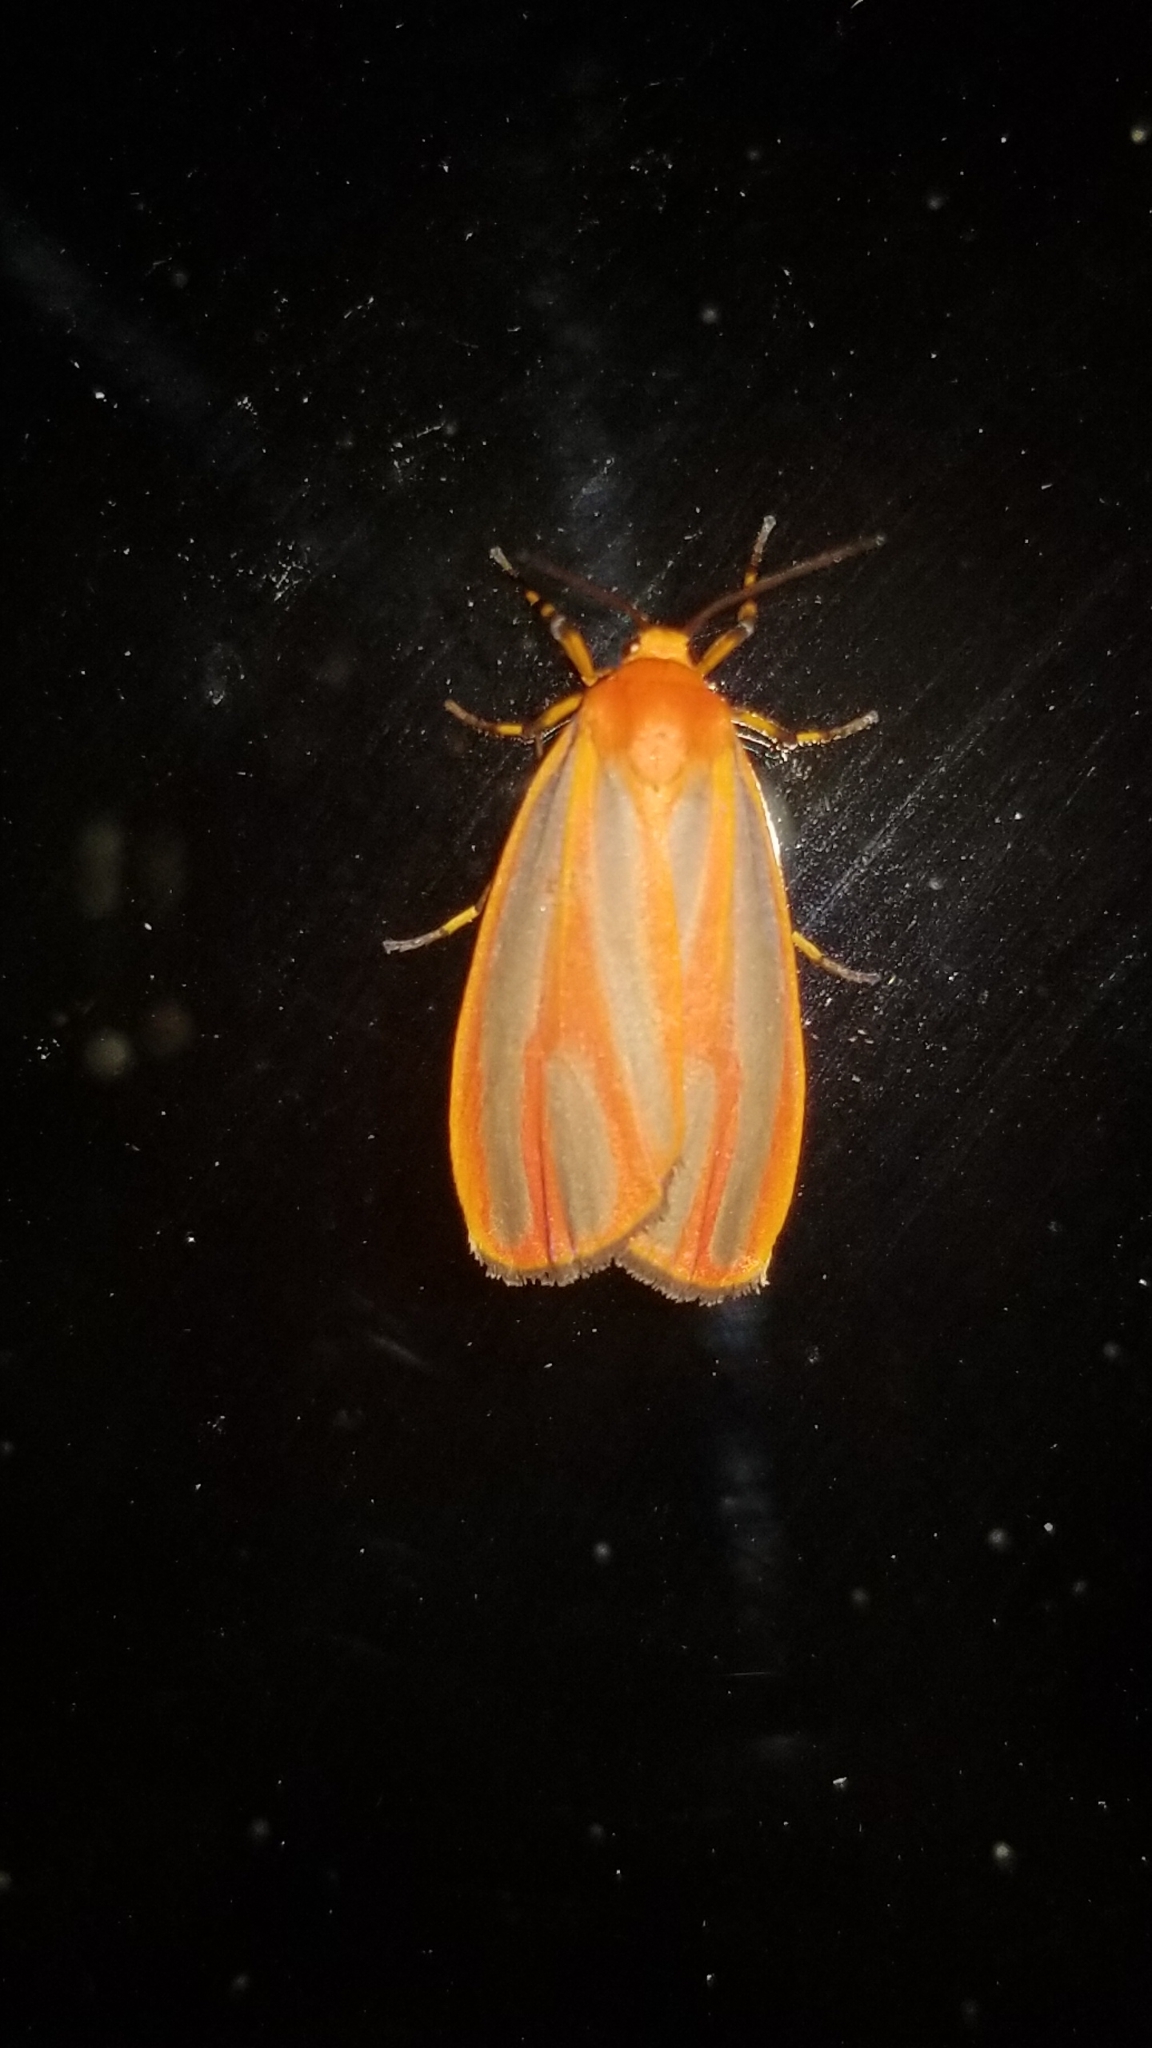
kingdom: Animalia
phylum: Arthropoda
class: Insecta
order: Lepidoptera
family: Erebidae
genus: Hypoprepia
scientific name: Hypoprepia fucosa
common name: Painted lichen moth
